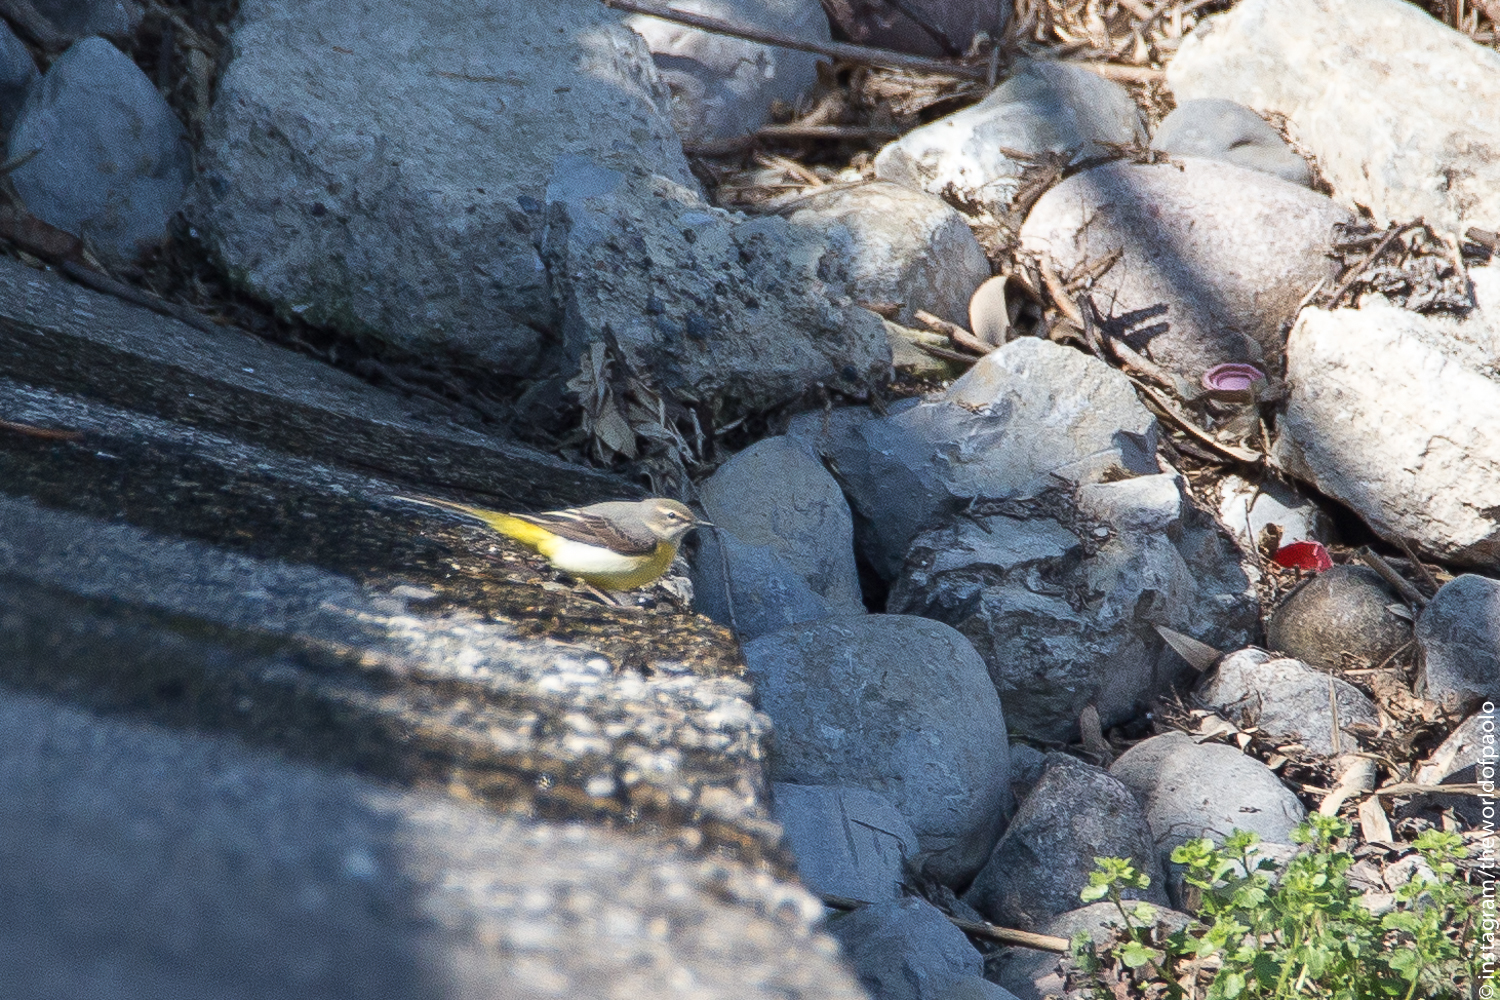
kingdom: Animalia
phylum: Chordata
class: Aves
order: Passeriformes
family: Motacillidae
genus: Motacilla
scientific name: Motacilla cinerea
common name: Grey wagtail
